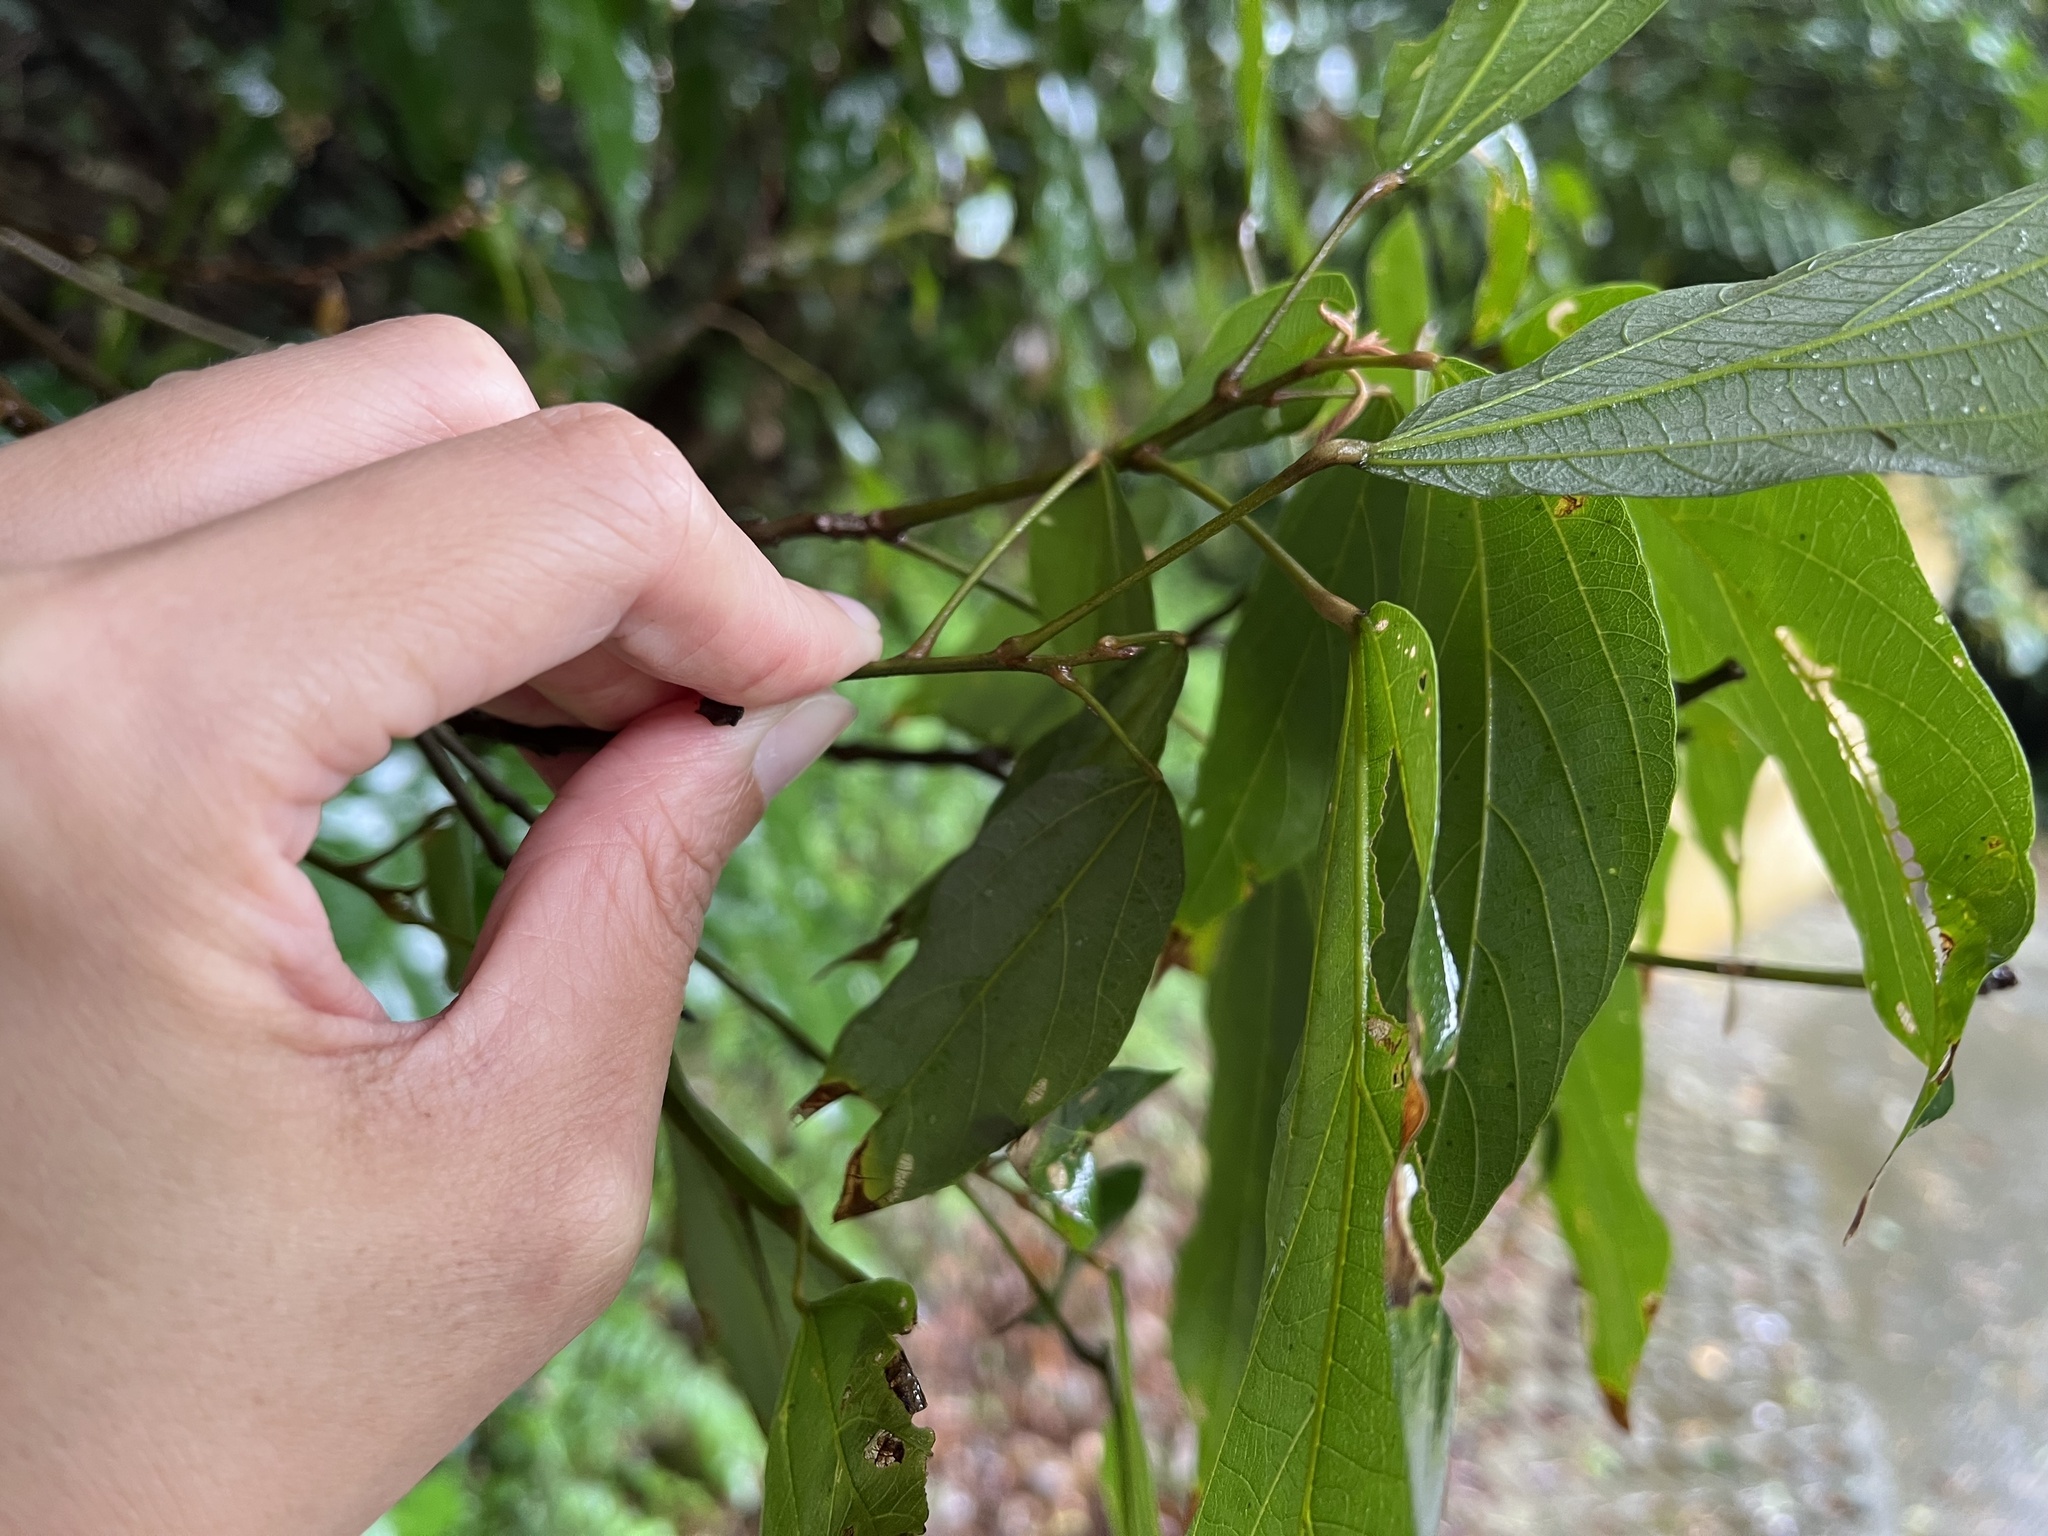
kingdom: Plantae
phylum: Tracheophyta
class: Magnoliopsida
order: Malpighiales
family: Euphorbiaceae
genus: Mallotus
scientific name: Mallotus philippensis
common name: Kamala tree
